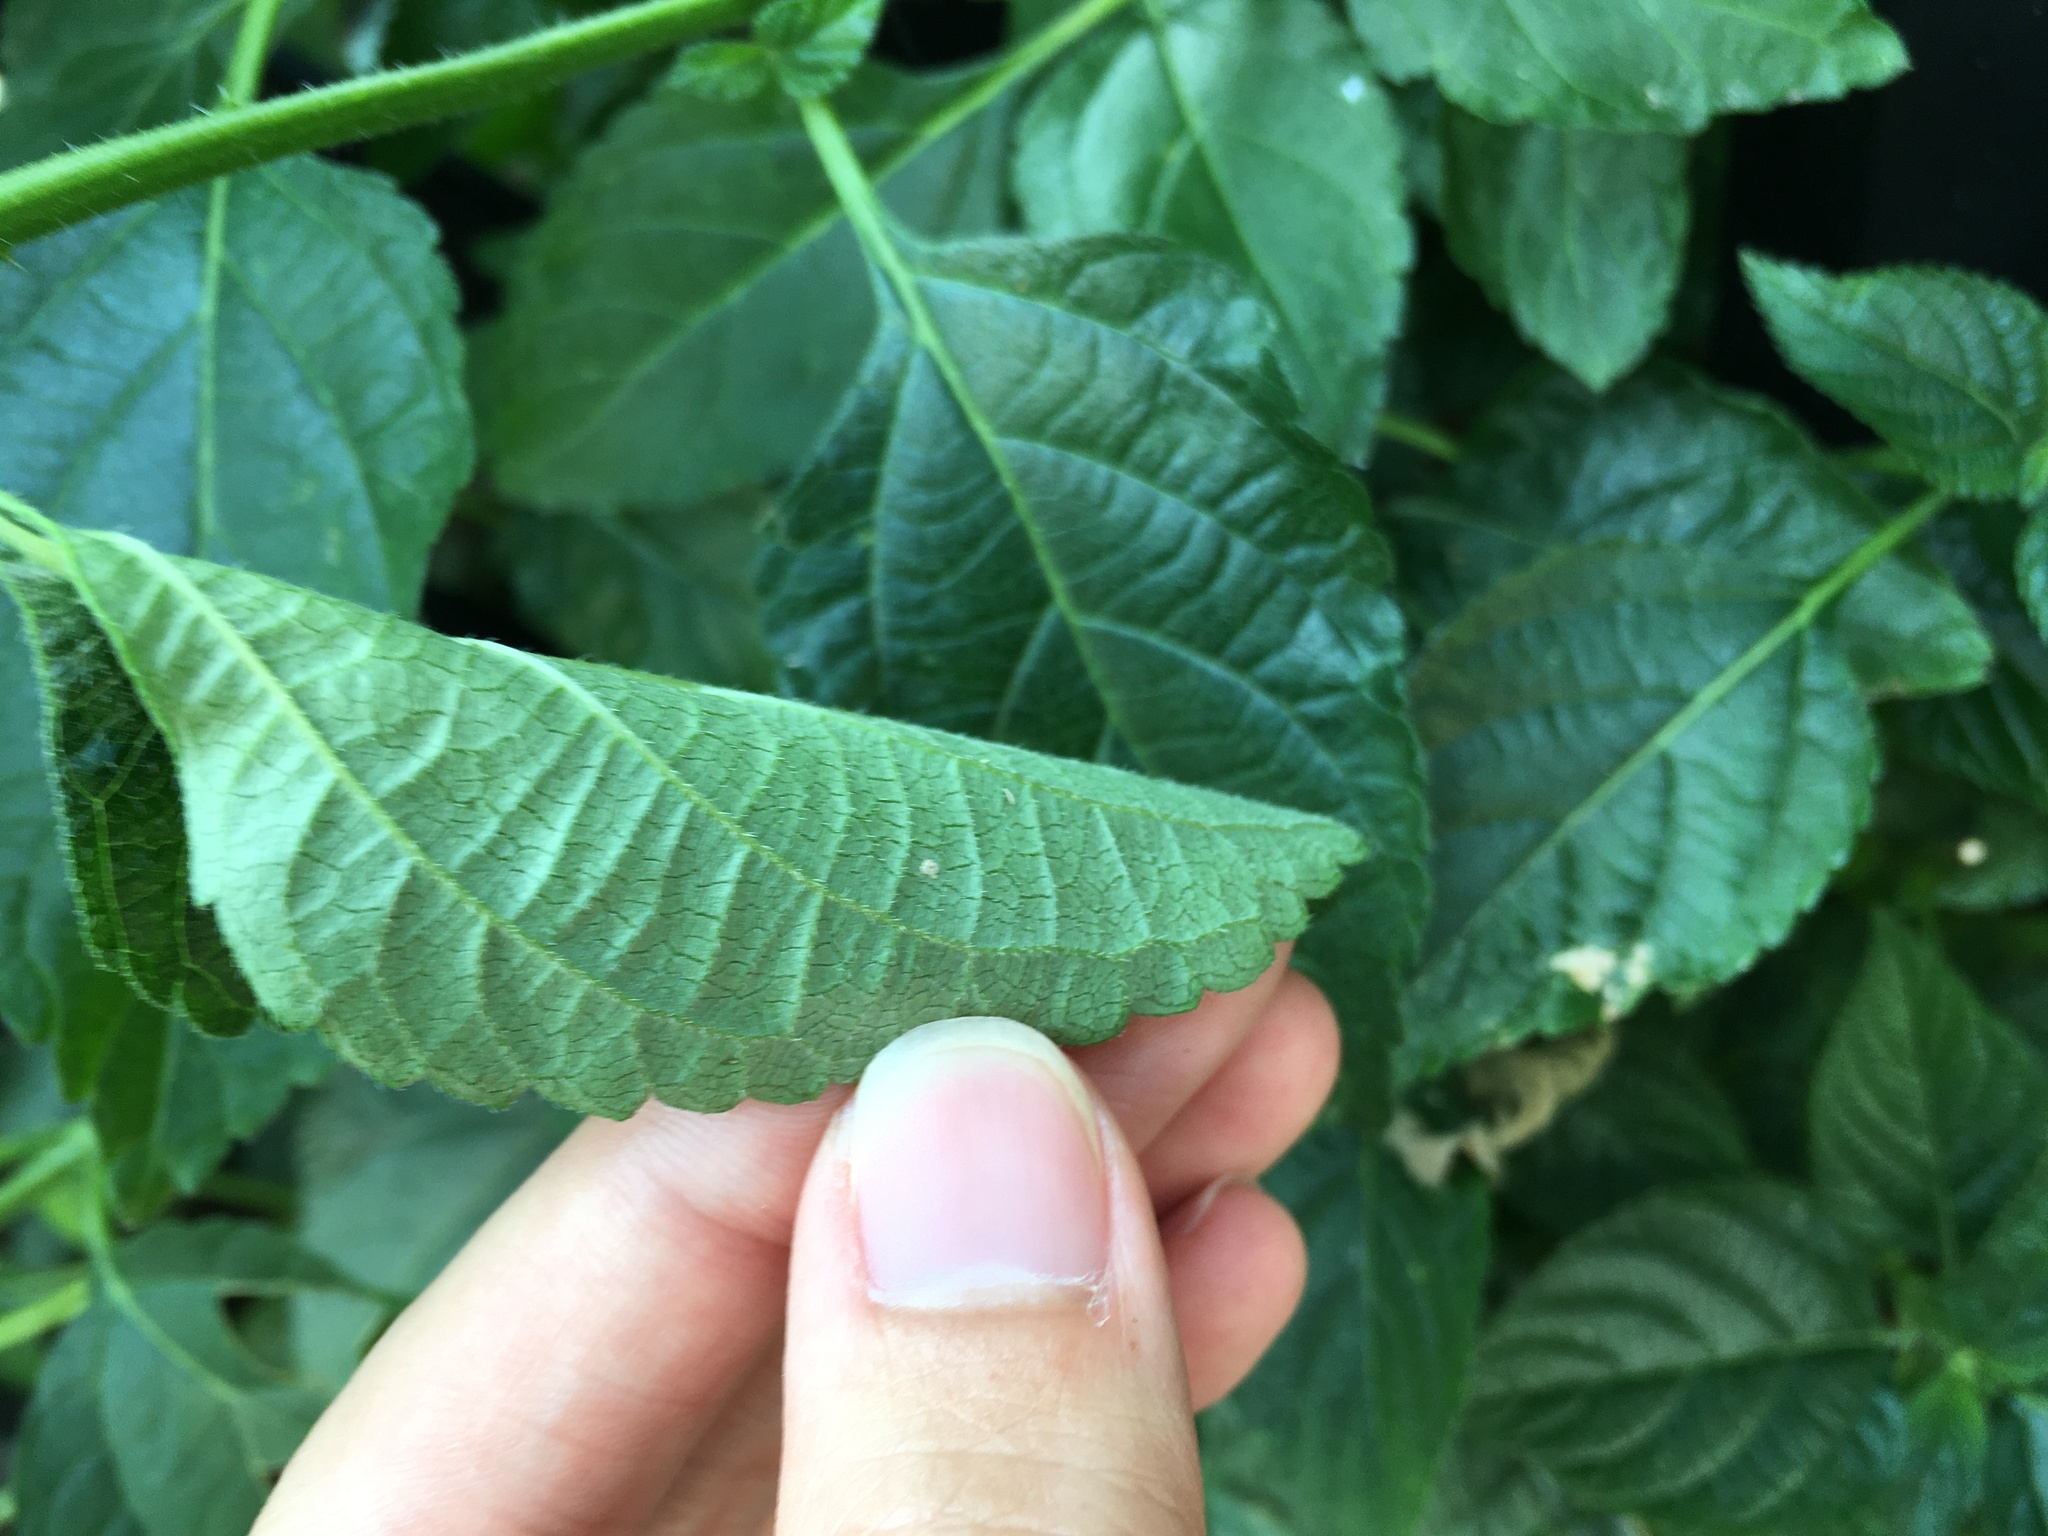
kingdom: Plantae
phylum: Tracheophyta
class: Magnoliopsida
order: Lamiales
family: Verbenaceae
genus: Lantana
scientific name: Lantana strigocamara
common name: Lantana
